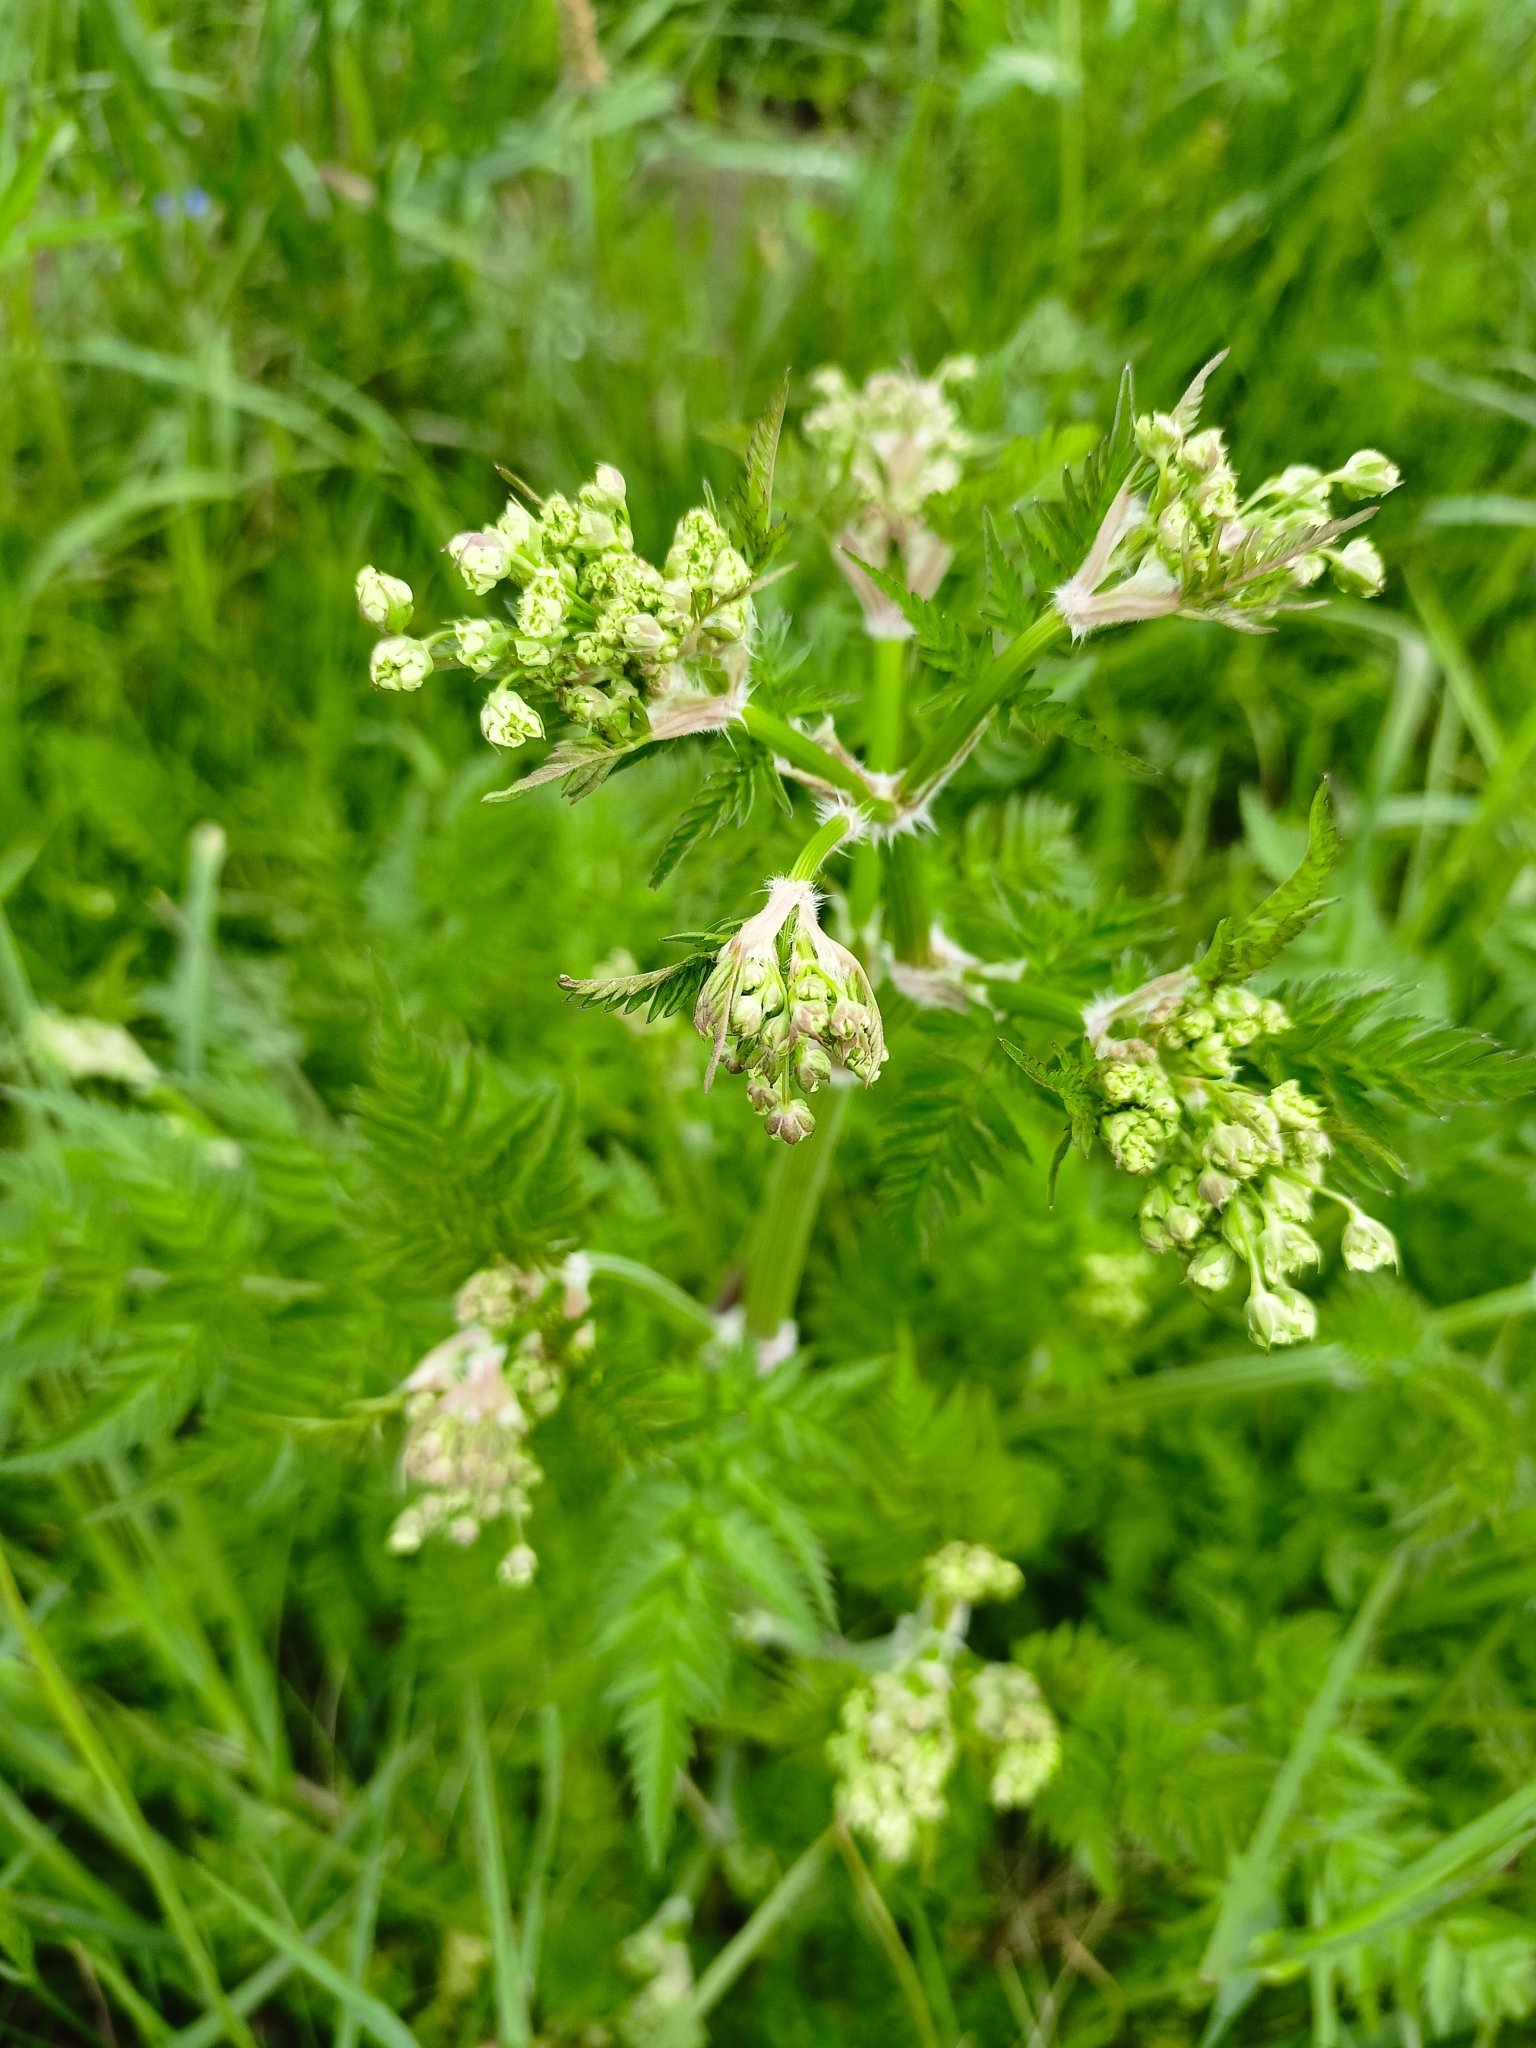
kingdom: Plantae
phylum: Tracheophyta
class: Magnoliopsida
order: Apiales
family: Apiaceae
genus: Anthriscus
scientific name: Anthriscus sylvestris
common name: Cow parsley
